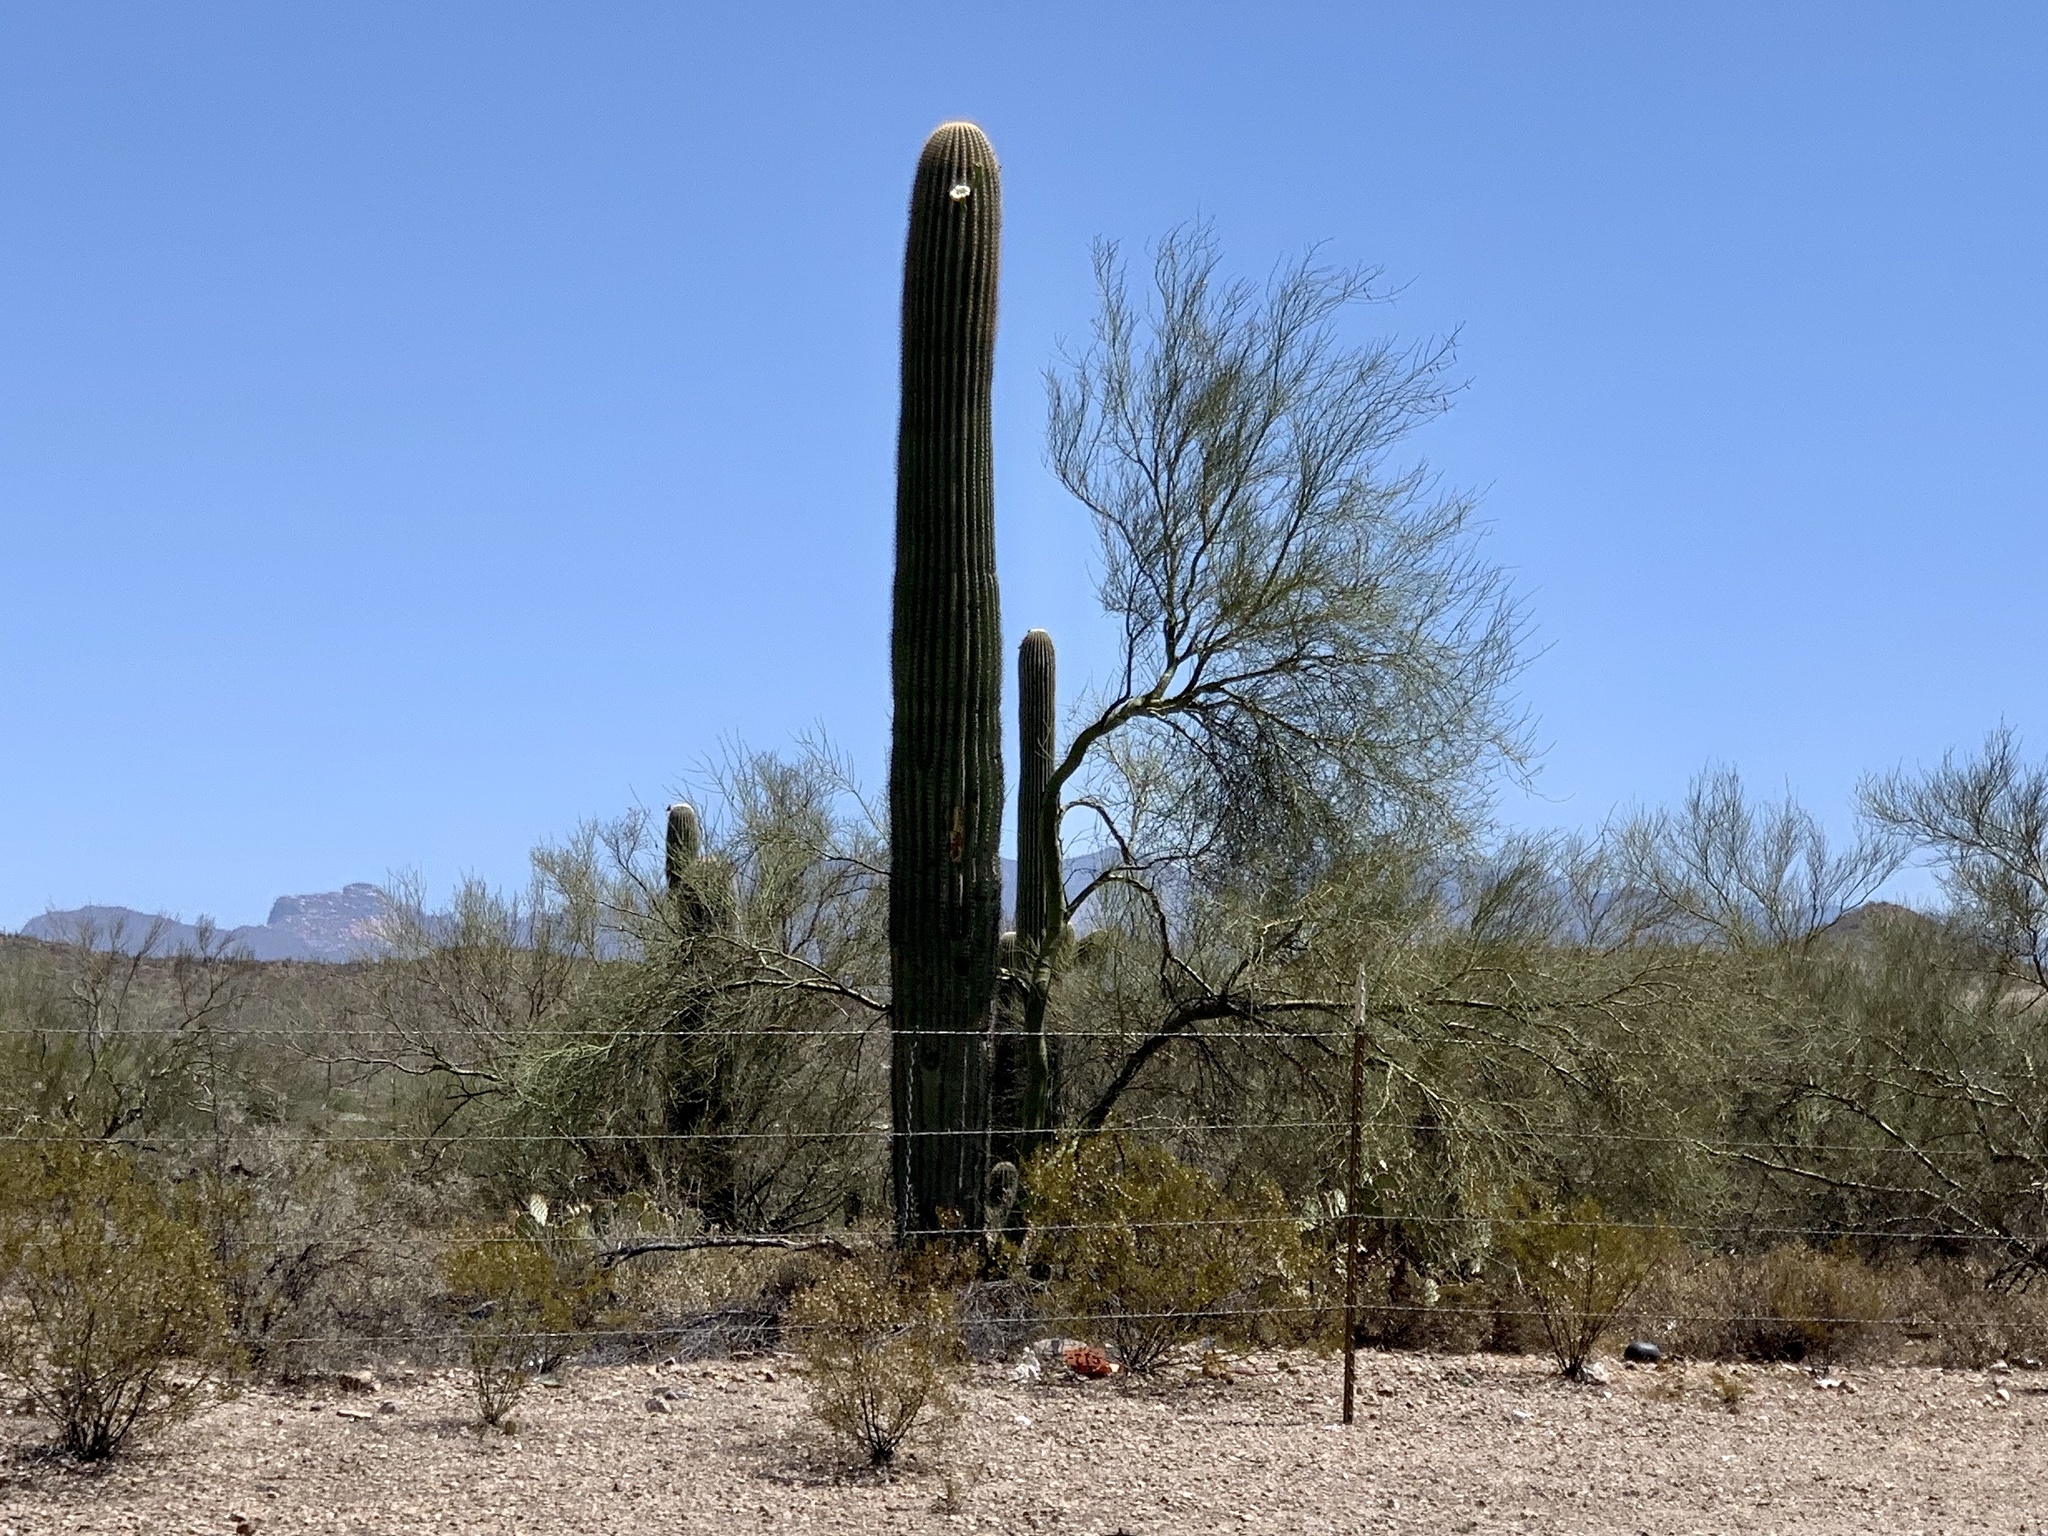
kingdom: Plantae
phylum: Tracheophyta
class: Magnoliopsida
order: Caryophyllales
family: Cactaceae
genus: Carnegiea
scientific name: Carnegiea gigantea
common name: Saguaro
